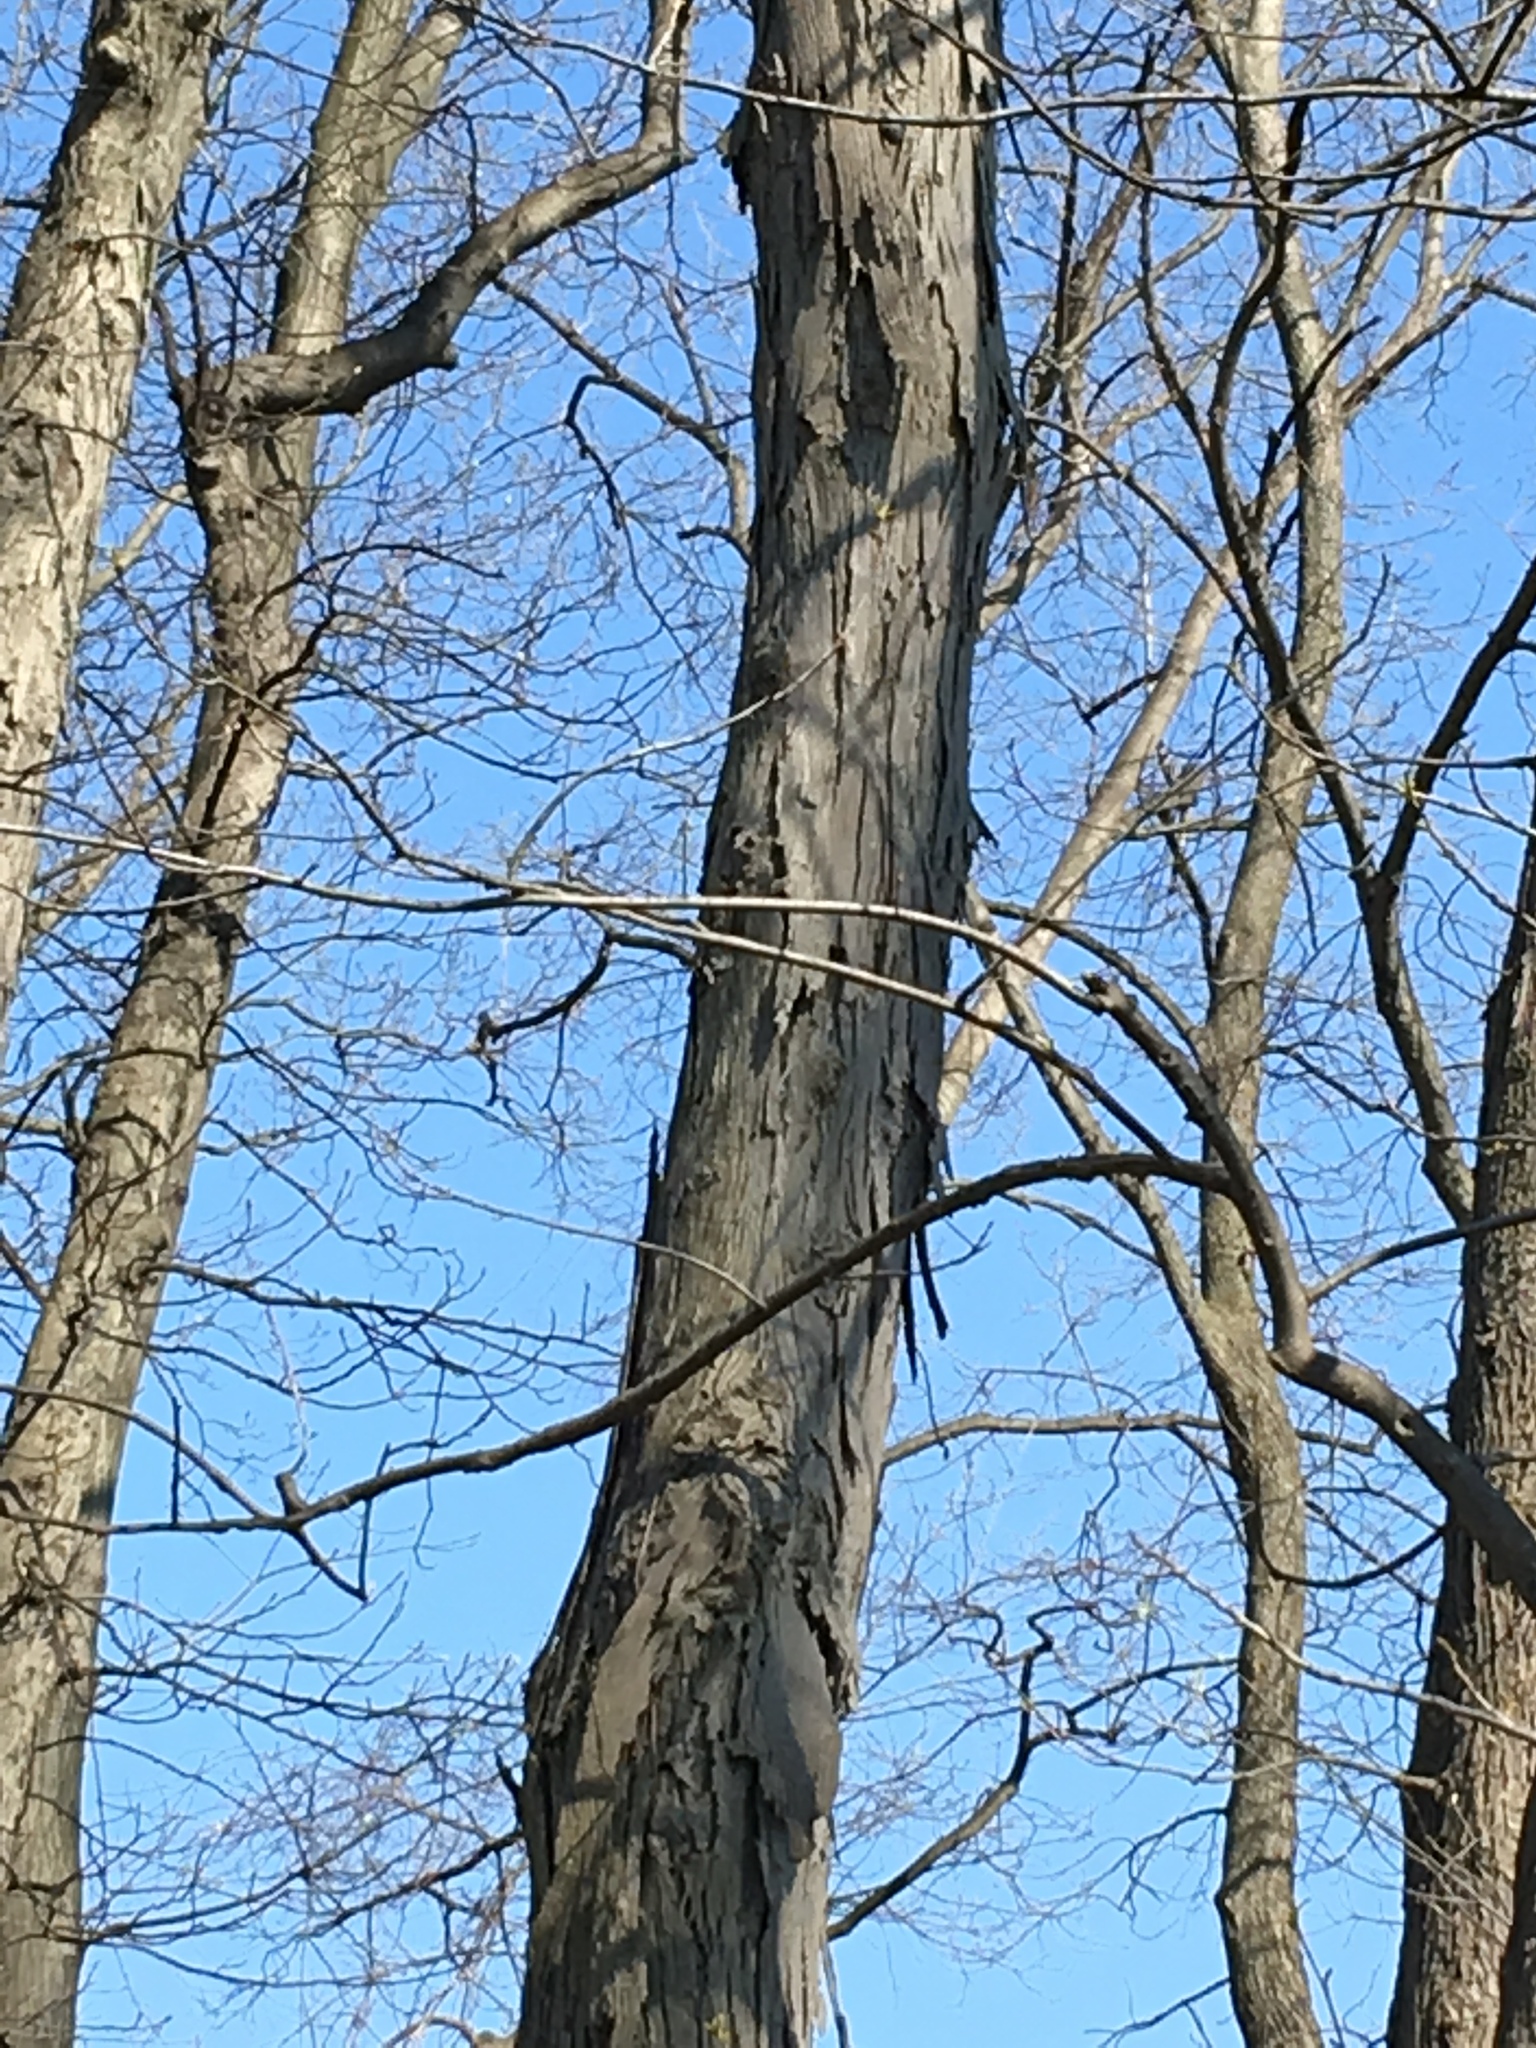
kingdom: Plantae
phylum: Tracheophyta
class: Magnoliopsida
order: Fagales
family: Juglandaceae
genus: Carya
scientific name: Carya ovata
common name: Shagbark hickory
